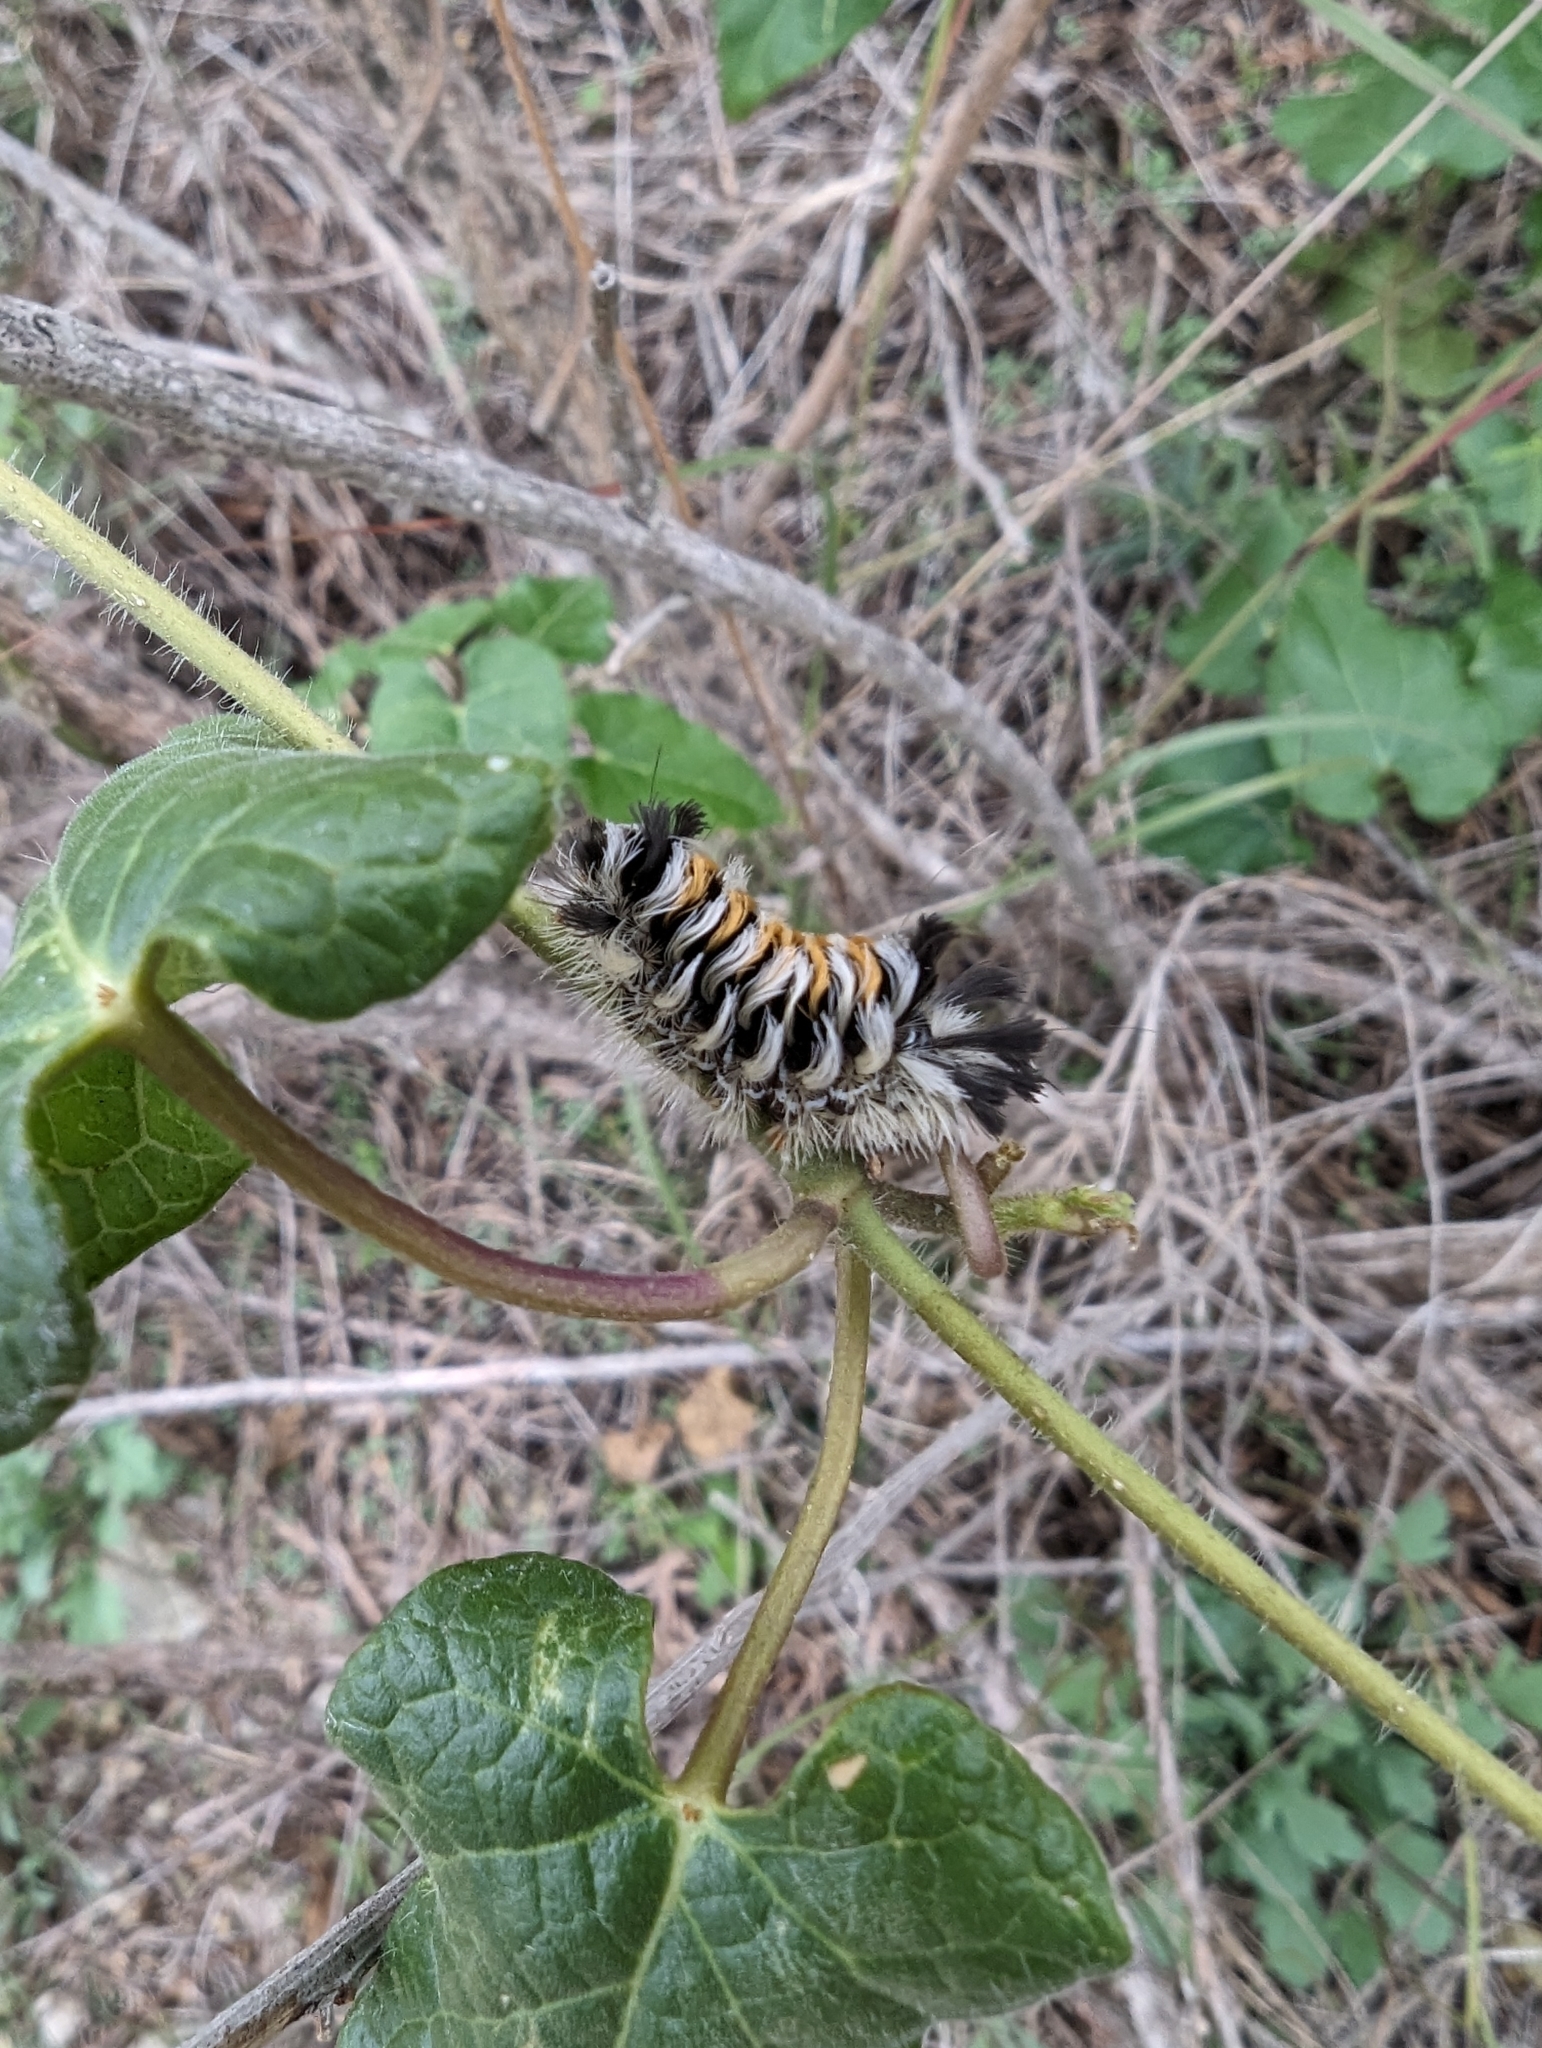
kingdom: Animalia
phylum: Arthropoda
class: Insecta
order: Lepidoptera
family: Erebidae
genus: Euchaetes
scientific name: Euchaetes bolteri
